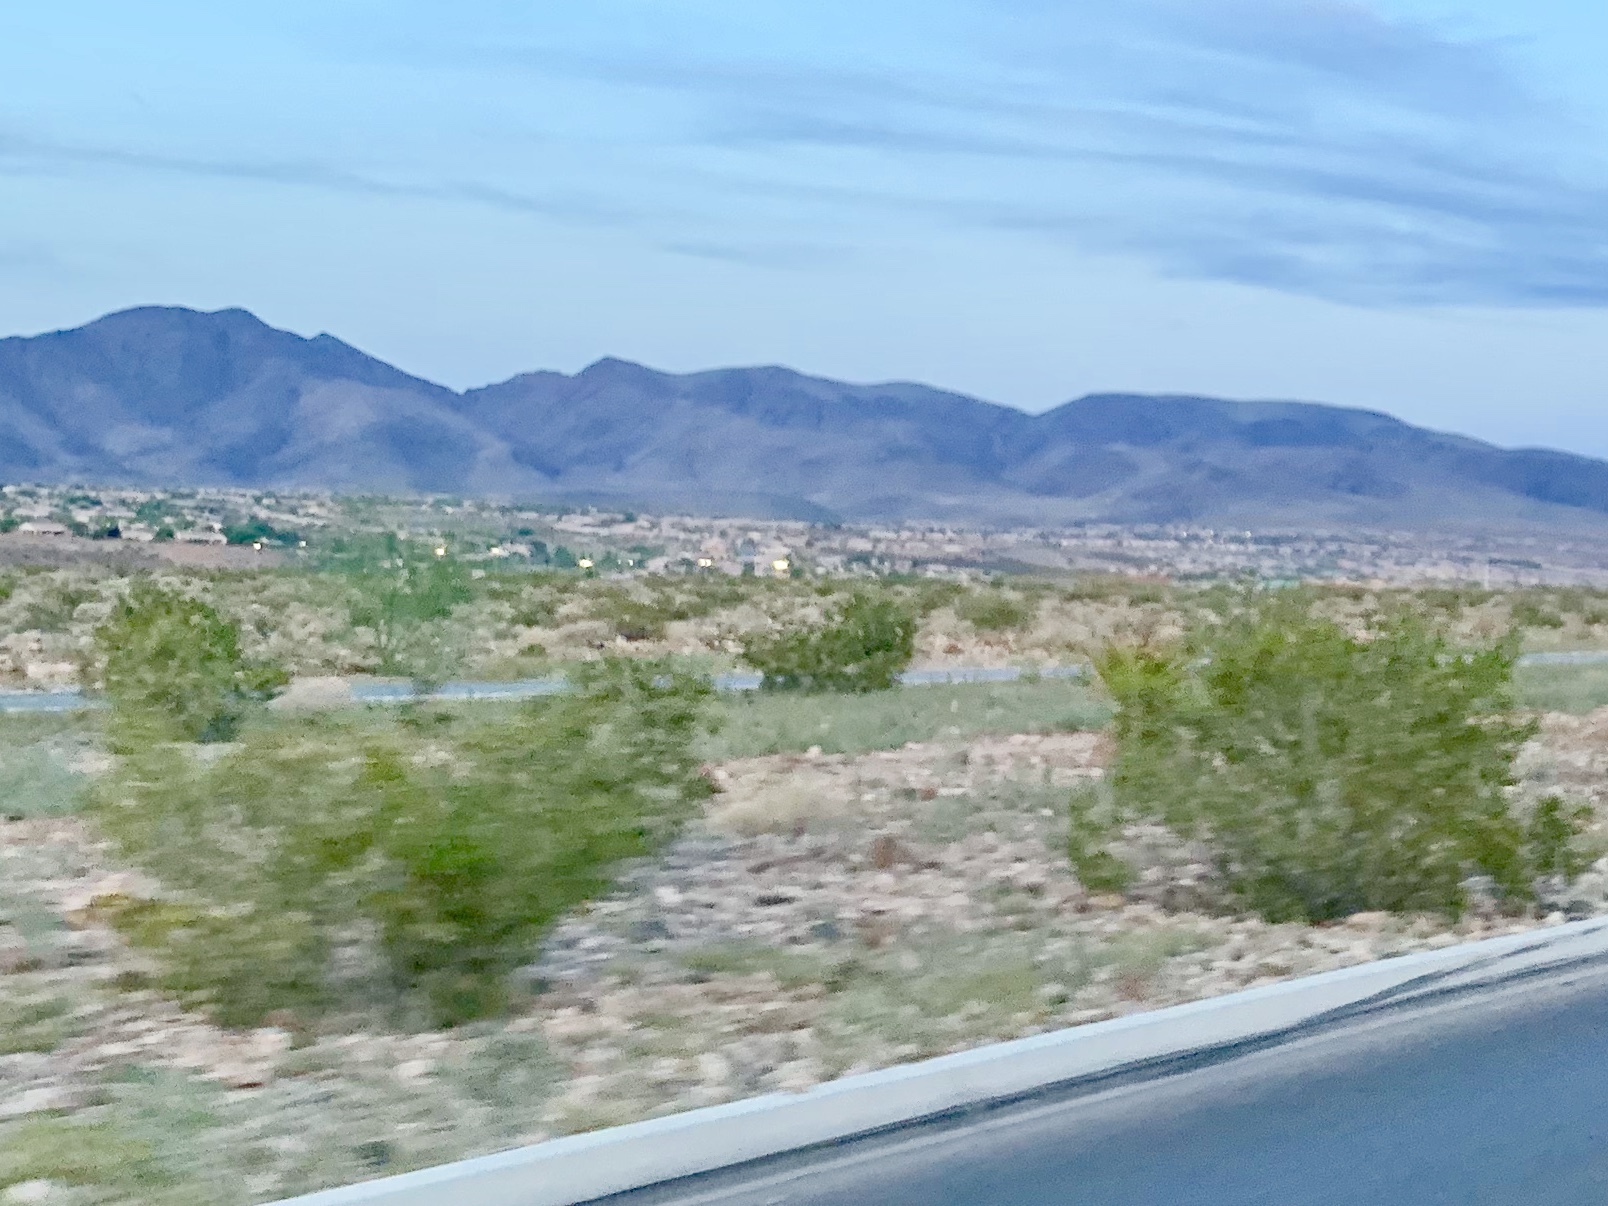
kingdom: Plantae
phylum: Tracheophyta
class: Magnoliopsida
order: Zygophyllales
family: Zygophyllaceae
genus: Larrea
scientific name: Larrea tridentata
